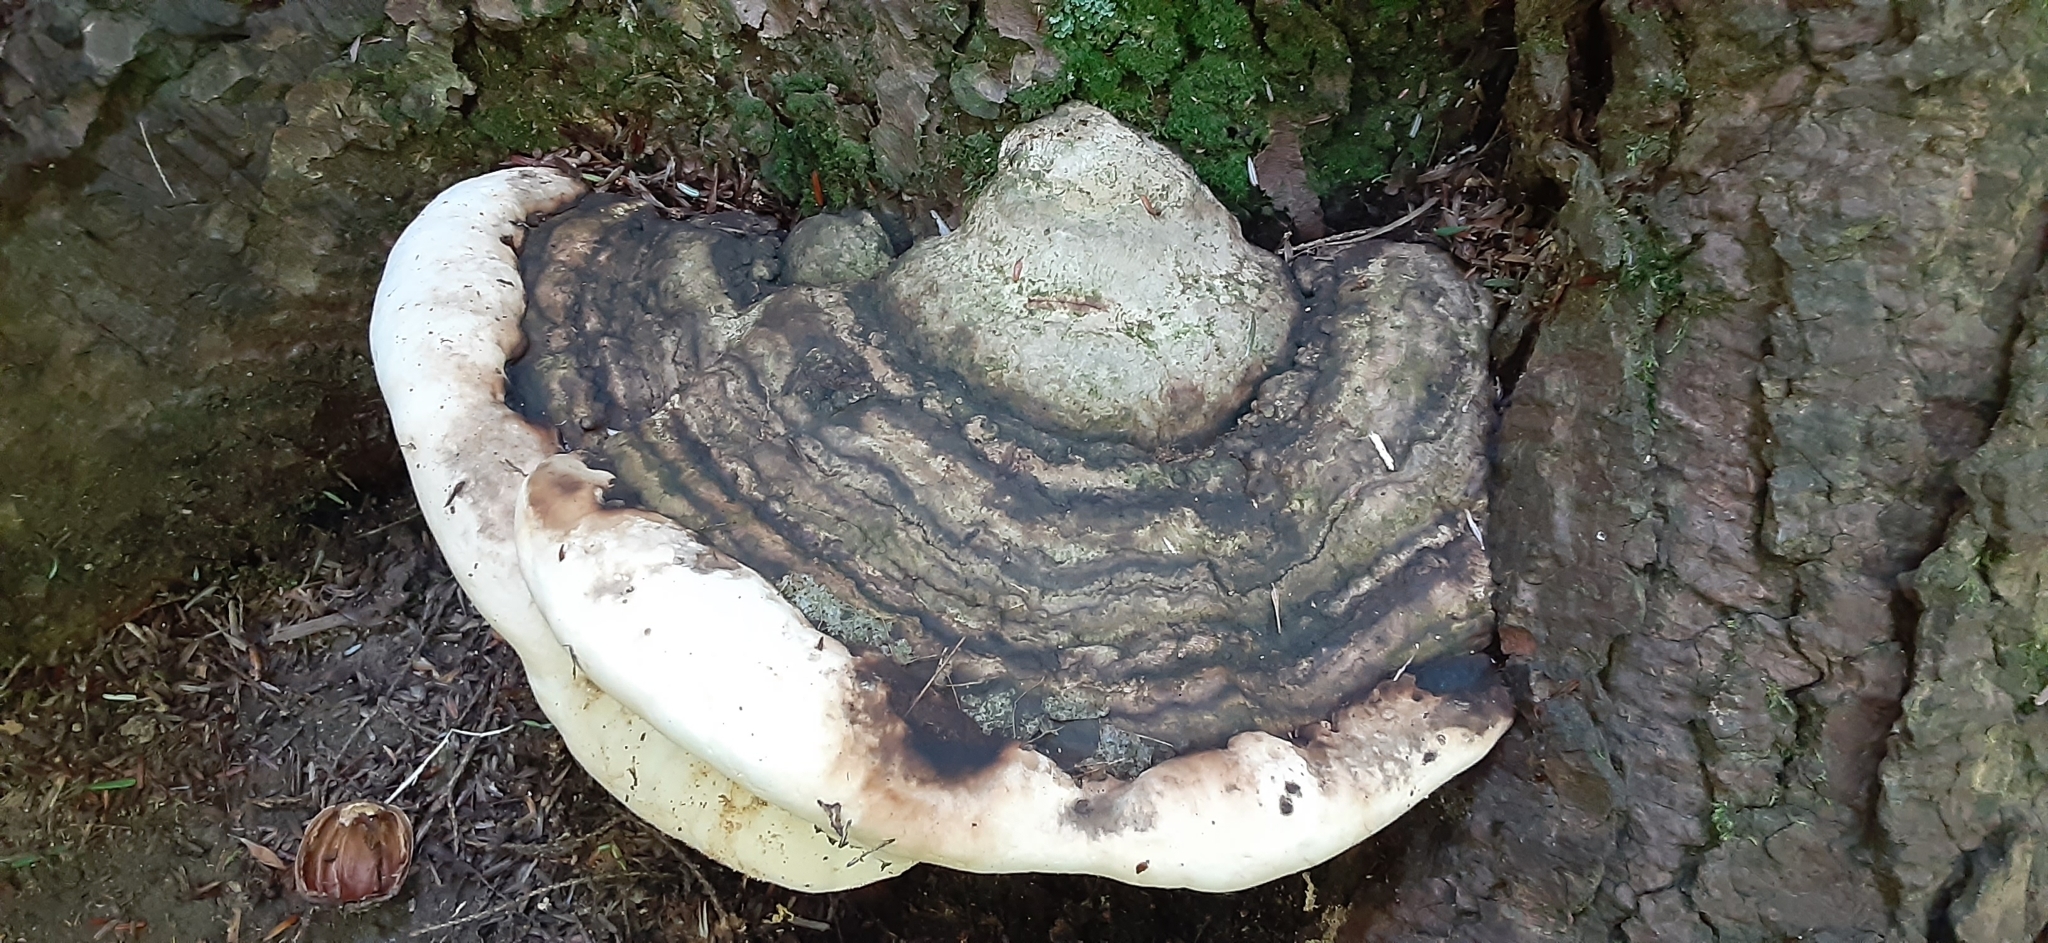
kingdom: Fungi
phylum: Basidiomycota
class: Agaricomycetes
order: Polyporales
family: Polyporaceae
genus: Ganoderma
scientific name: Ganoderma applanatum
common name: Artist's bracket
